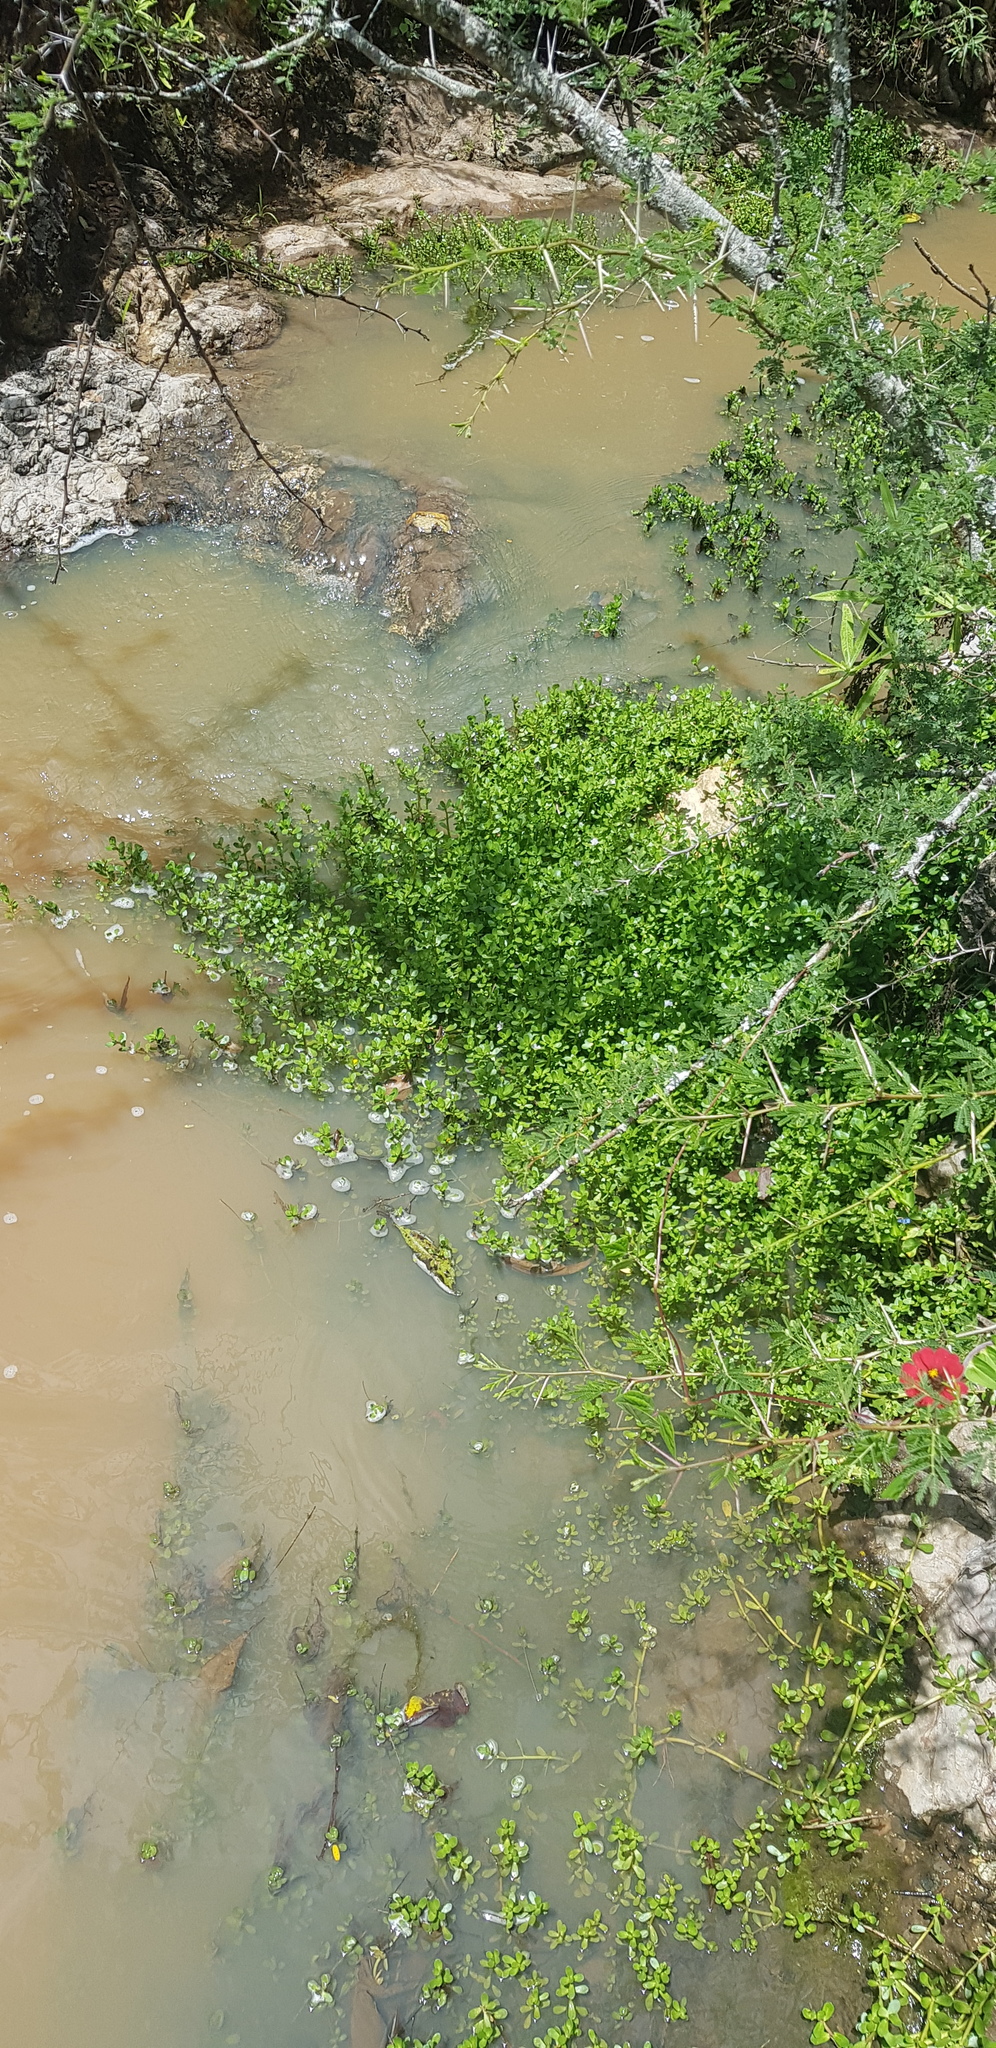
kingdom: Plantae
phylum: Tracheophyta
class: Magnoliopsida
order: Caryophyllales
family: Portulacaceae
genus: Portulaca
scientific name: Portulaca oleracea
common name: Common purslane
